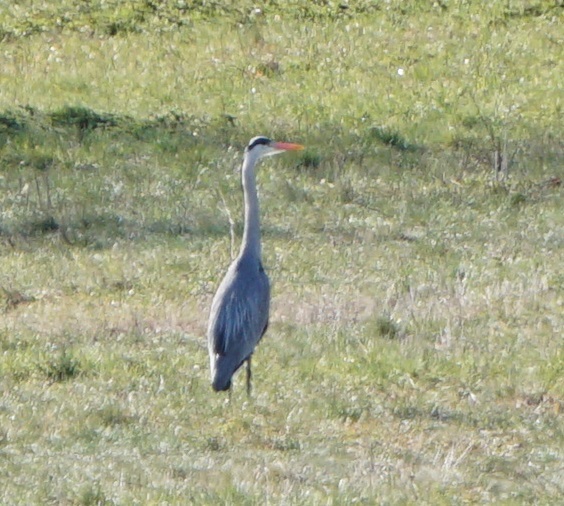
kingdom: Animalia
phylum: Chordata
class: Aves
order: Pelecaniformes
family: Ardeidae
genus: Ardea
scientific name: Ardea cinerea
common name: Grey heron
